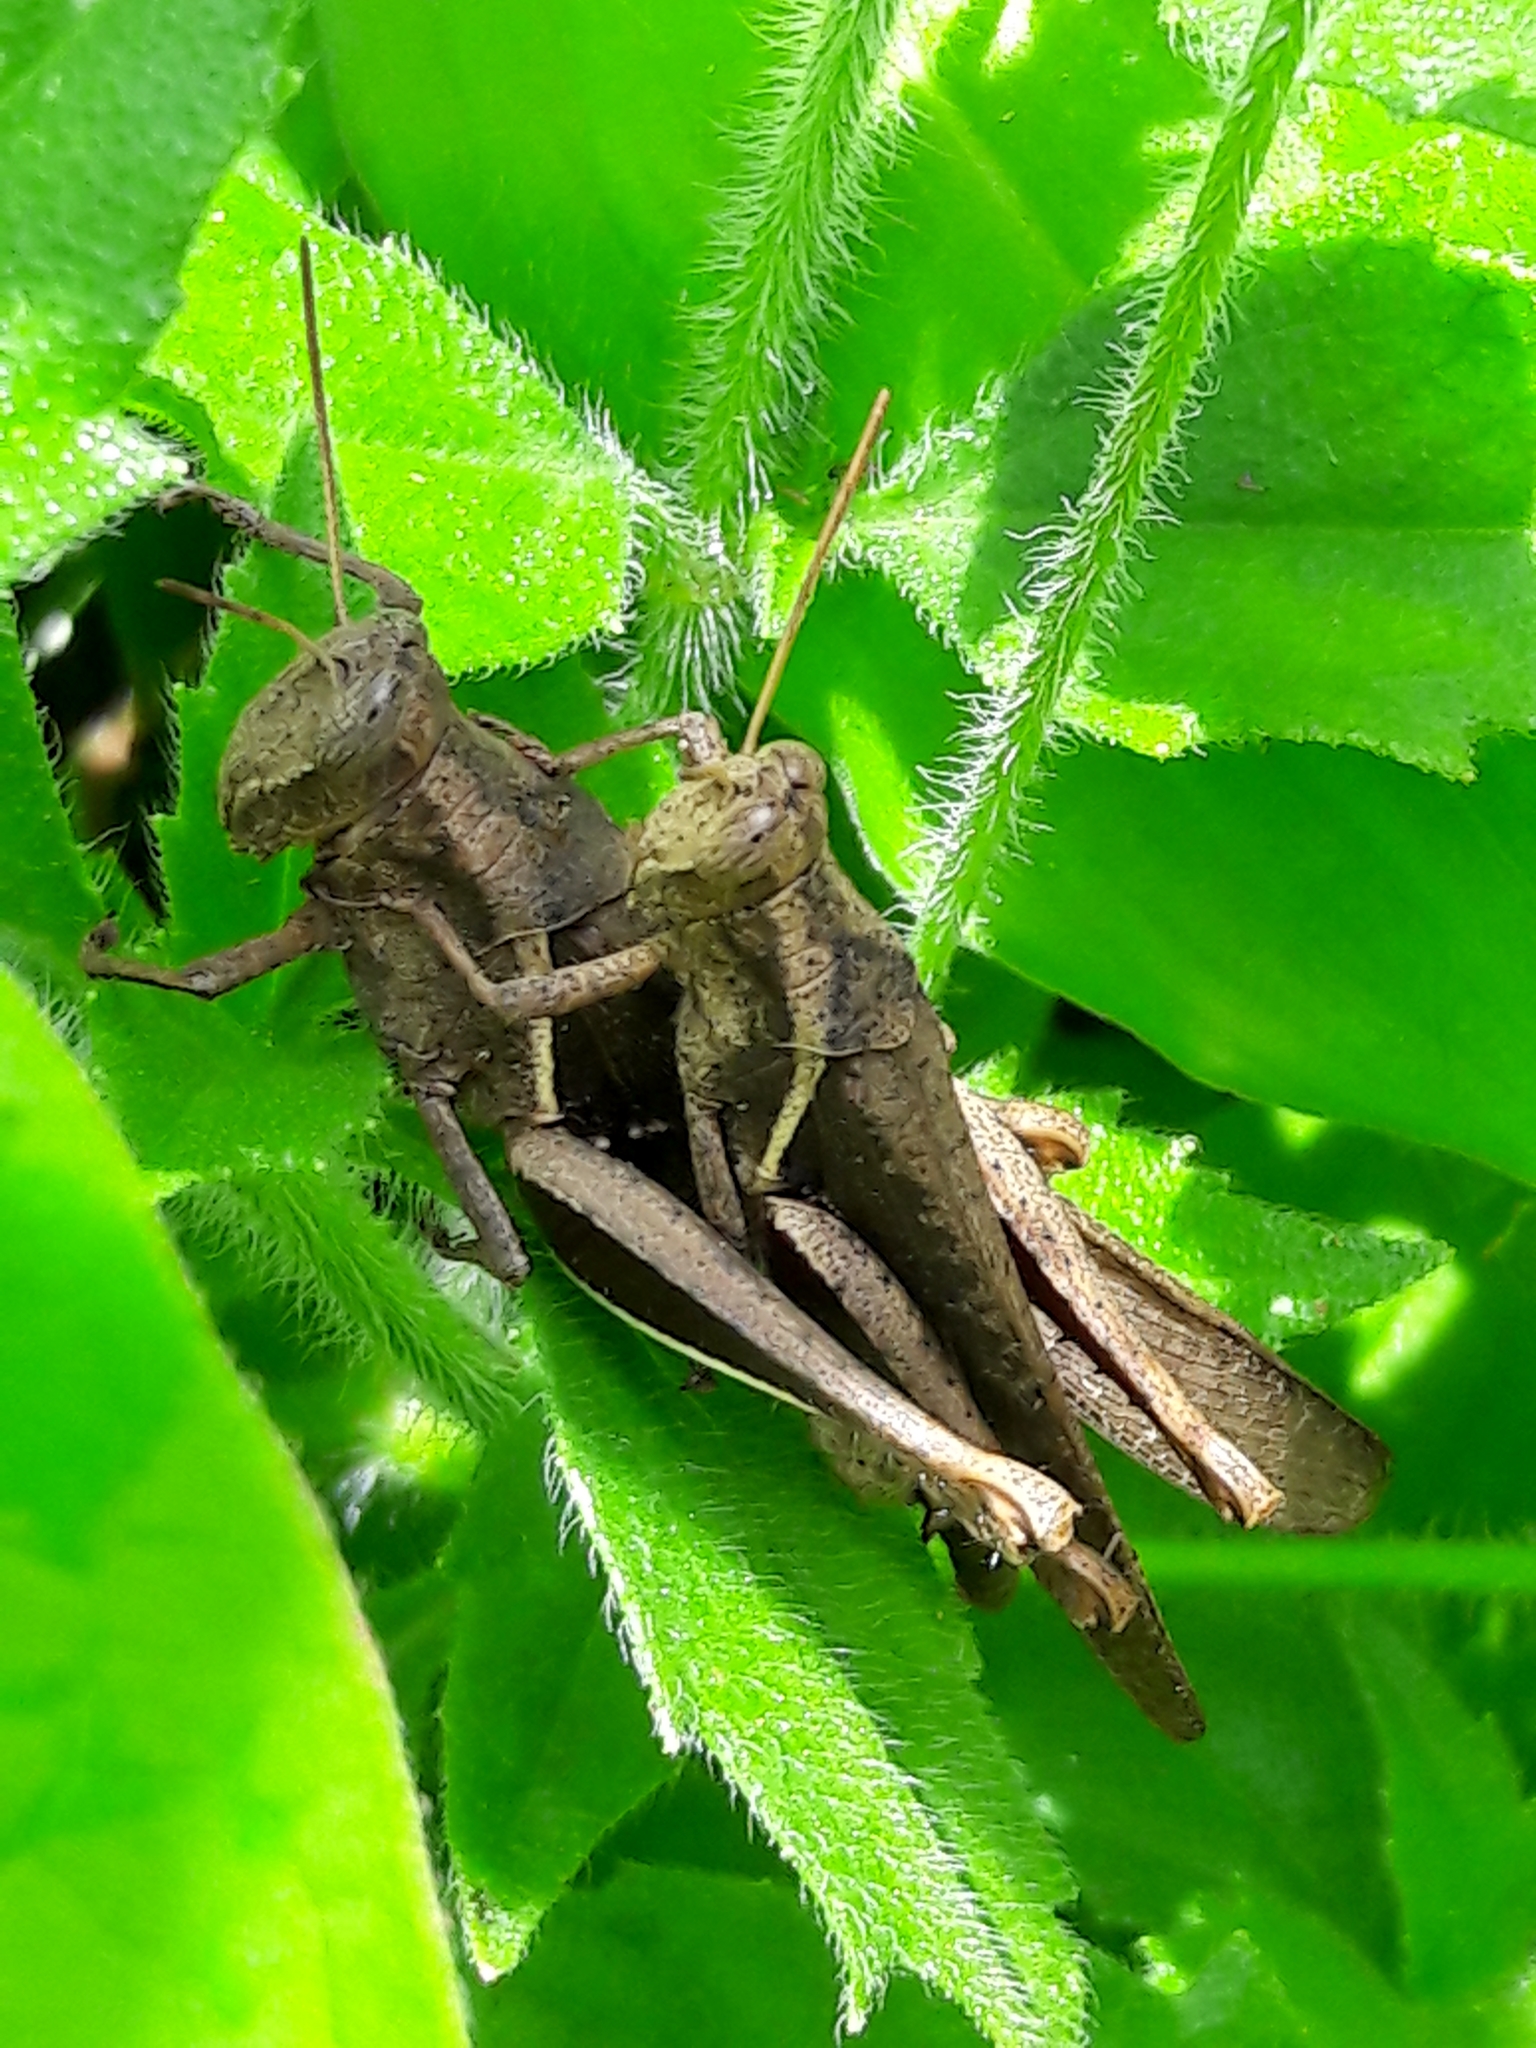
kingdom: Animalia
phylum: Arthropoda
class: Insecta
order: Orthoptera
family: Acrididae
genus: Abracris
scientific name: Abracris flavolineata
